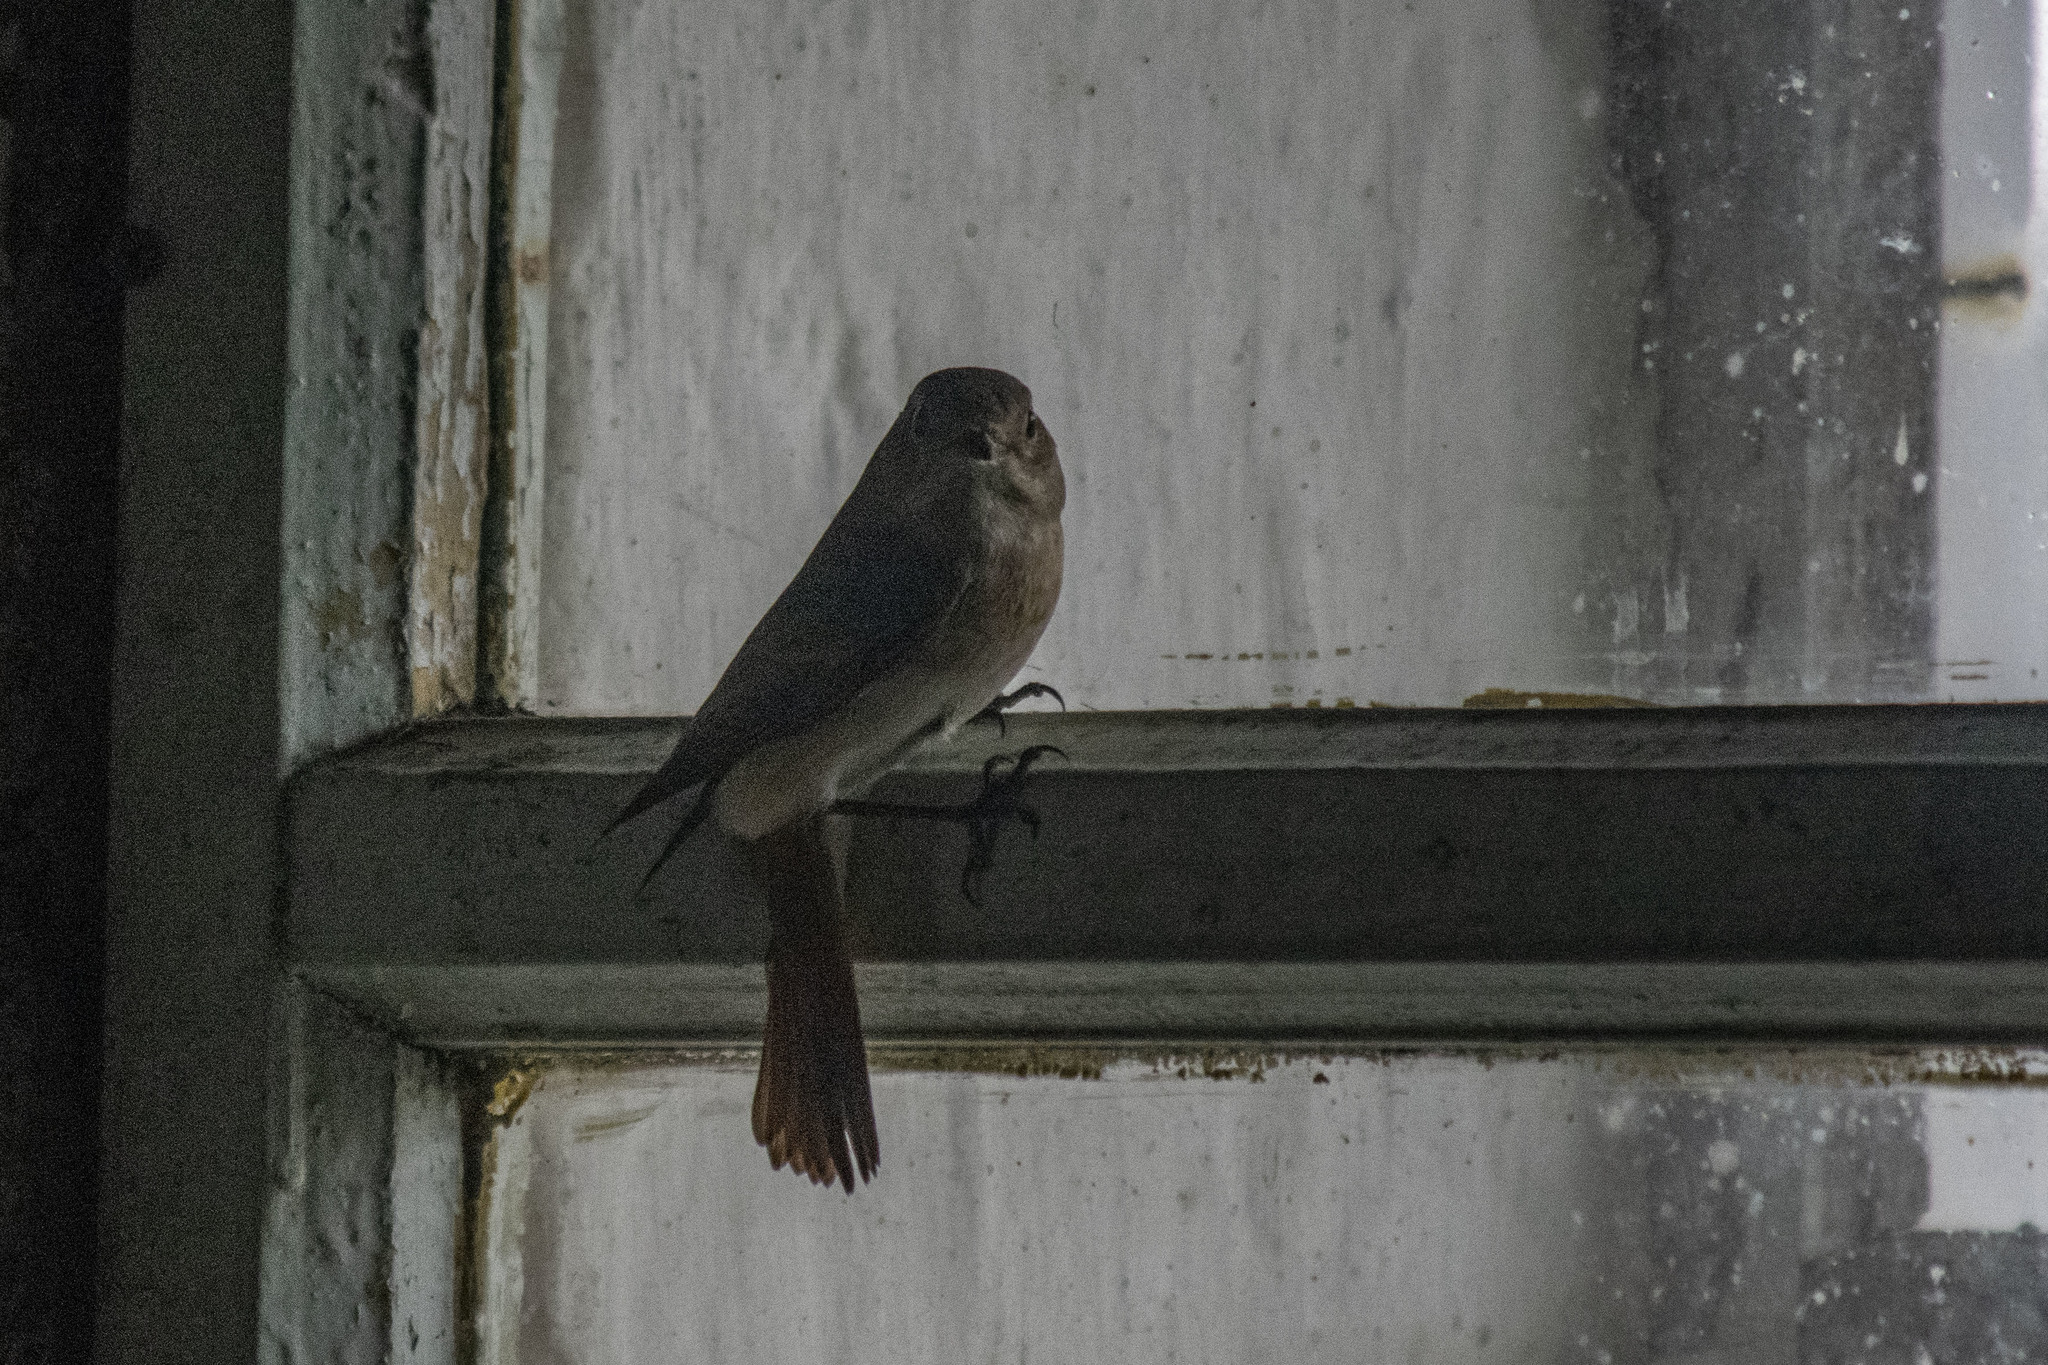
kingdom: Animalia
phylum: Chordata
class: Aves
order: Passeriformes
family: Muscicapidae
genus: Muscicapa
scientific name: Muscicapa striata
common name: Spotted flycatcher
